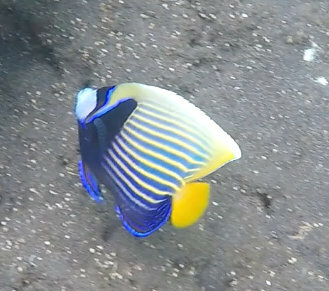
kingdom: Animalia
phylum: Chordata
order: Perciformes
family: Pomacanthidae
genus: Pomacanthus
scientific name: Pomacanthus imperator
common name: Emperor angelfish
